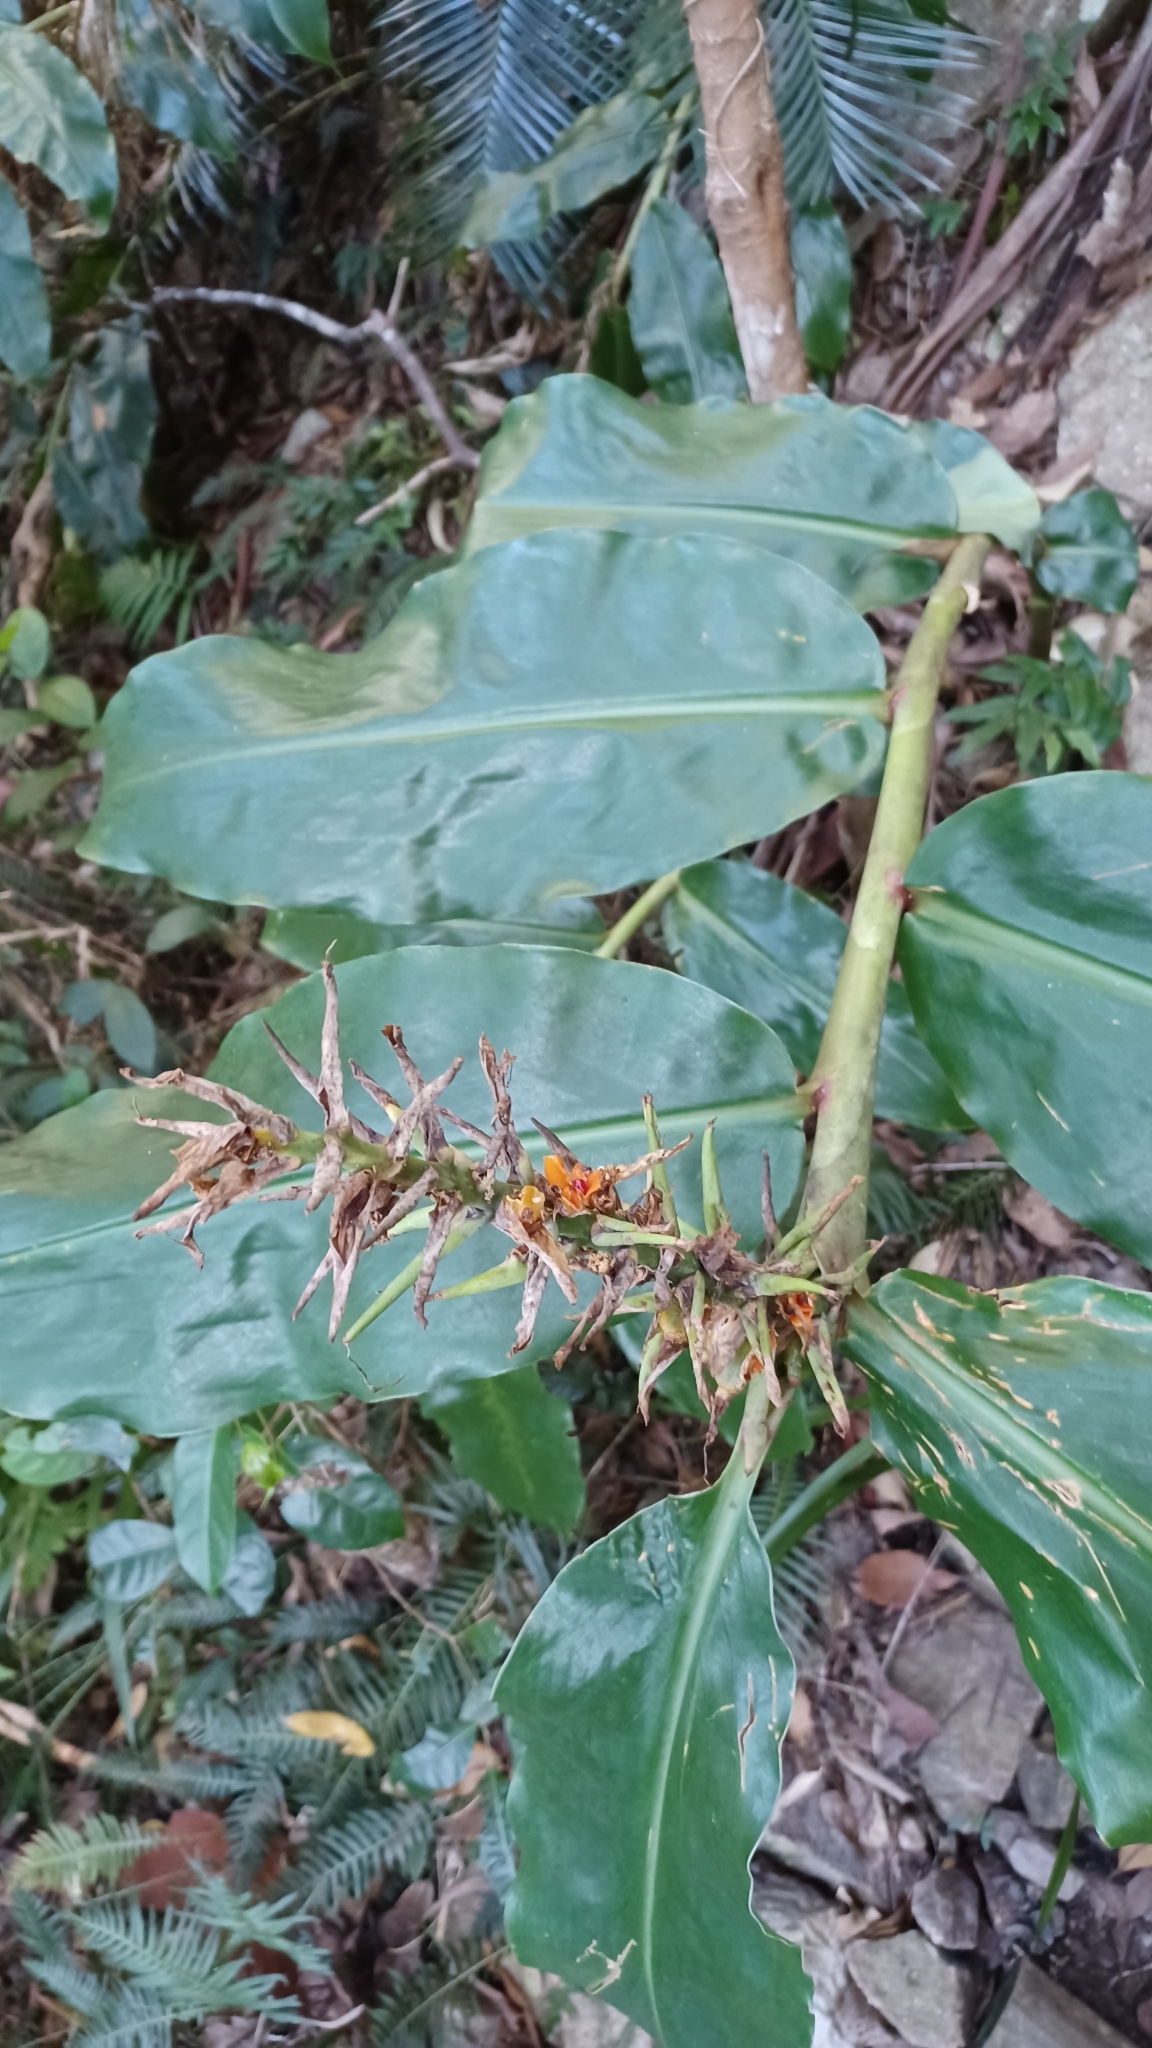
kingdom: Plantae
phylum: Tracheophyta
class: Liliopsida
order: Zingiberales
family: Zingiberaceae
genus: Hedychium
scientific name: Hedychium gardnerianum
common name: Himalayan ginger
